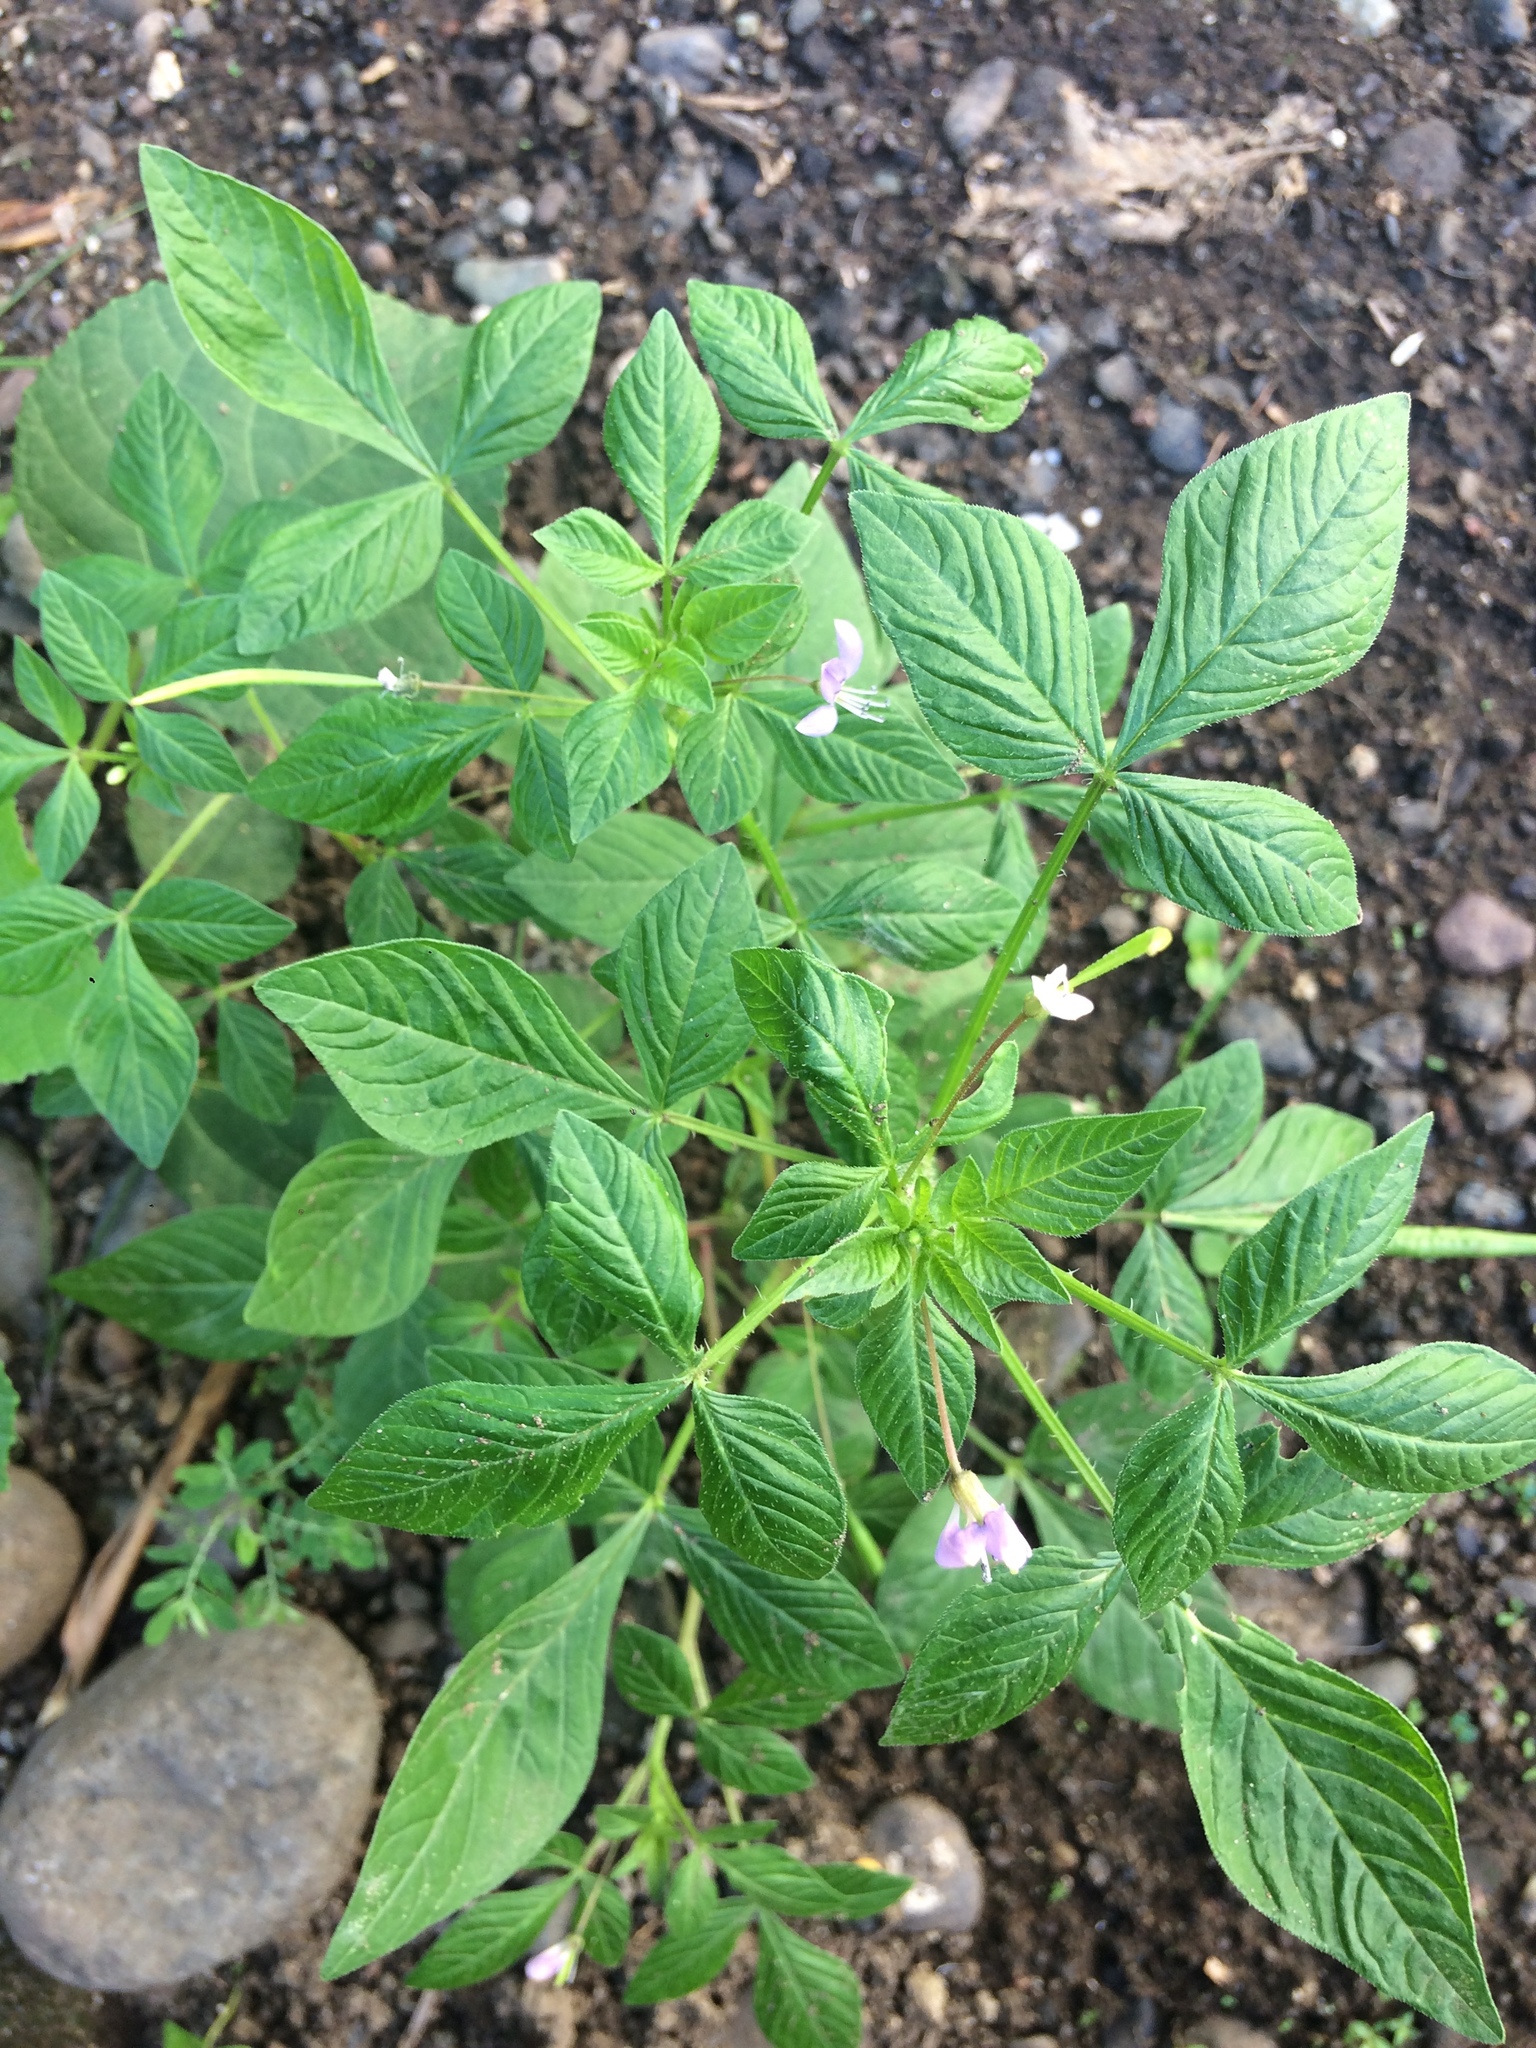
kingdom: Plantae
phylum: Tracheophyta
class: Magnoliopsida
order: Brassicales
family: Cleomaceae
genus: Sieruela
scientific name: Sieruela rutidosperma
